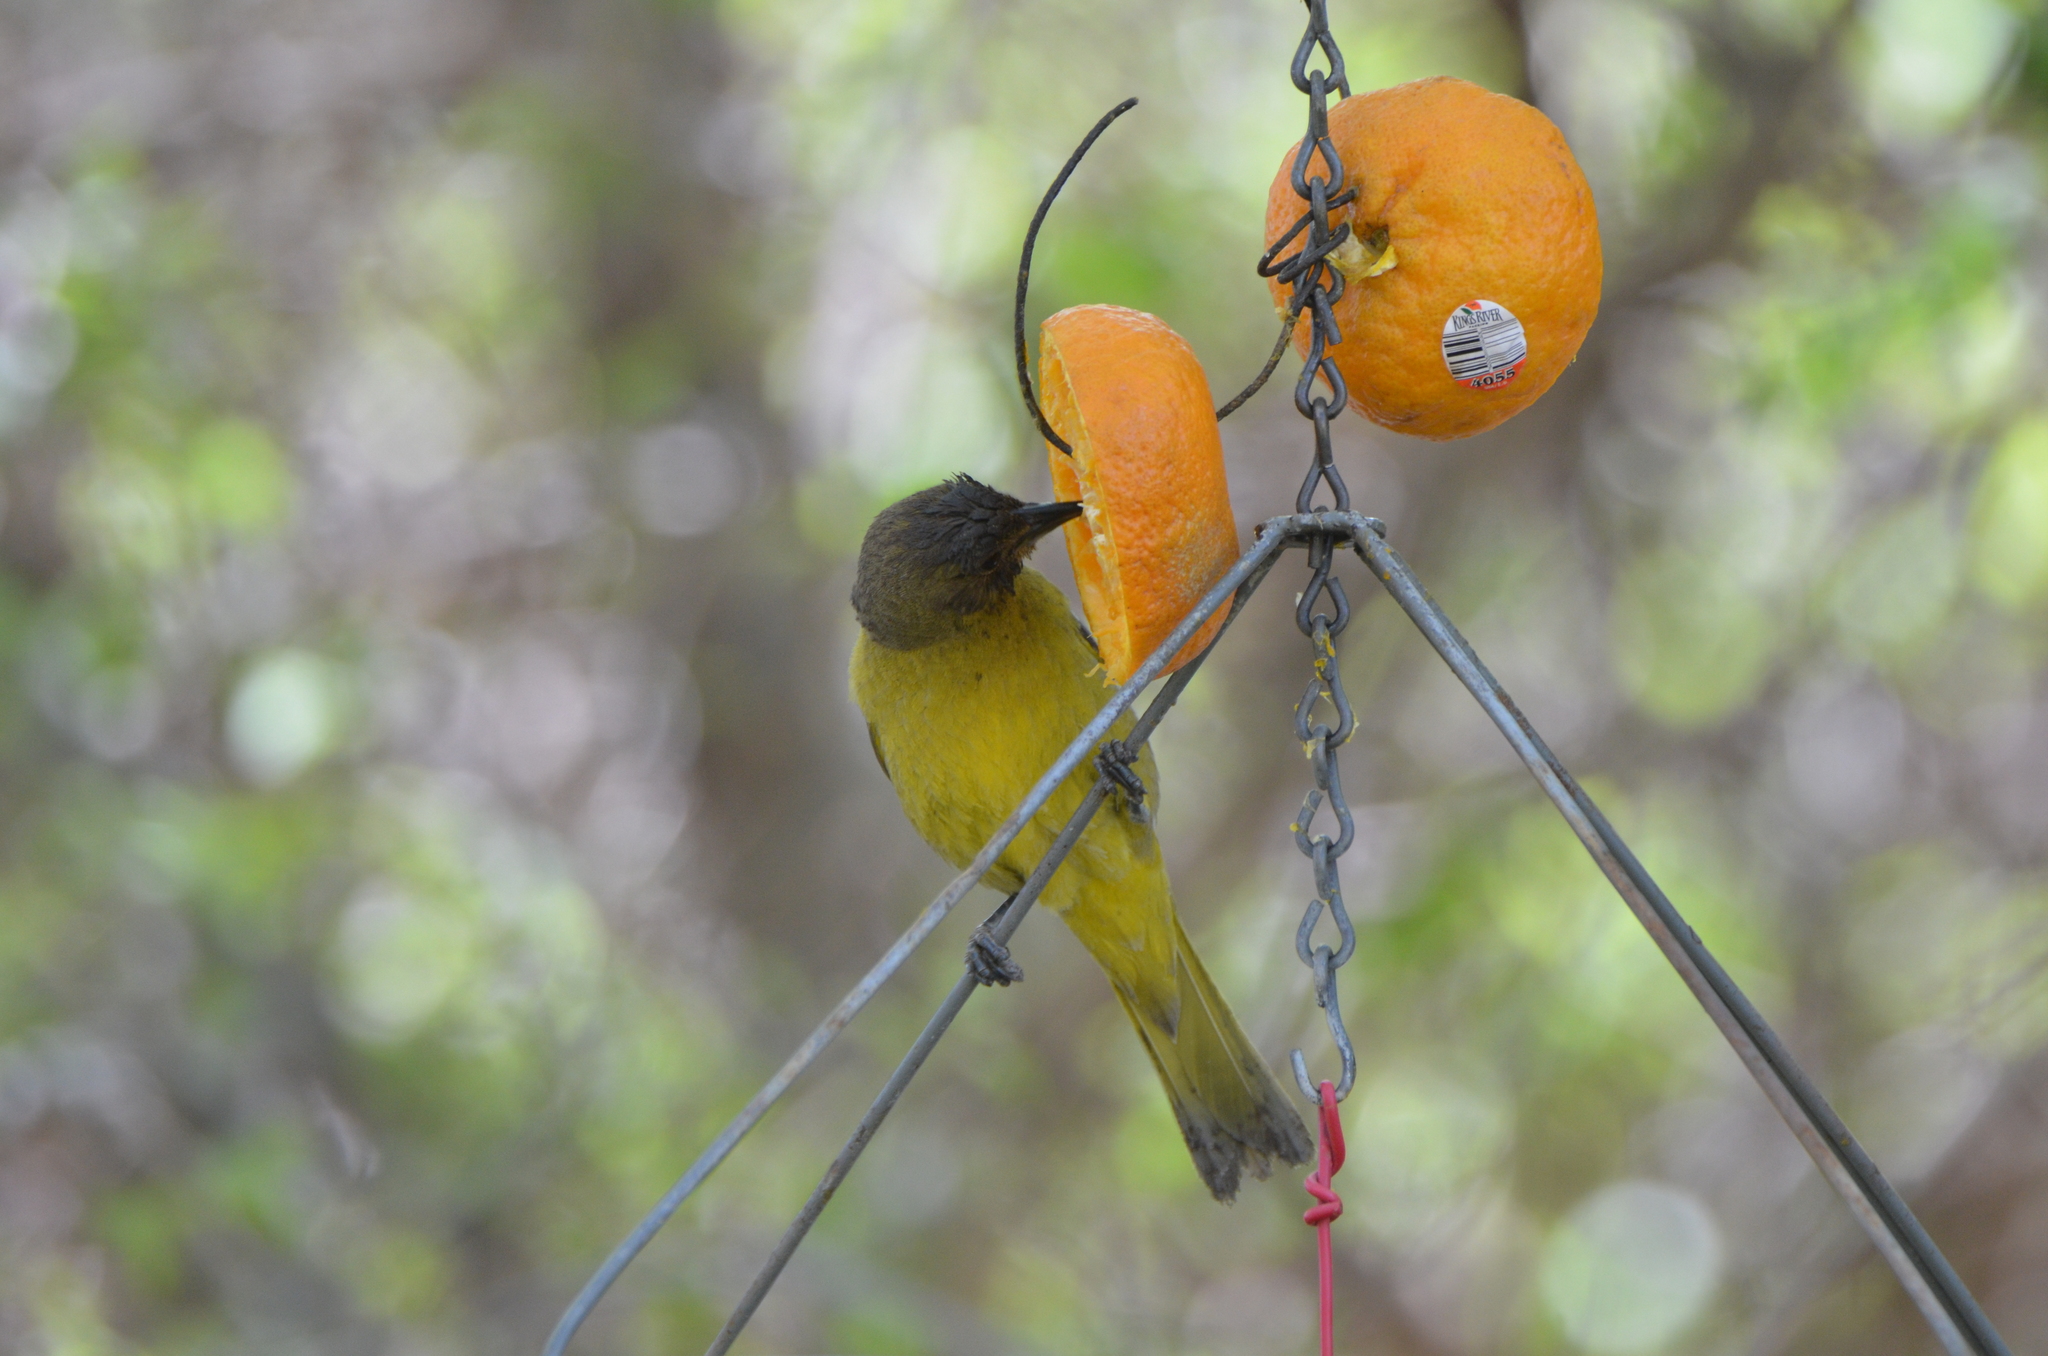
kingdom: Animalia
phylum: Chordata
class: Aves
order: Passeriformes
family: Icteridae
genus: Icterus
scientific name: Icterus cucullatus
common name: Hooded oriole
